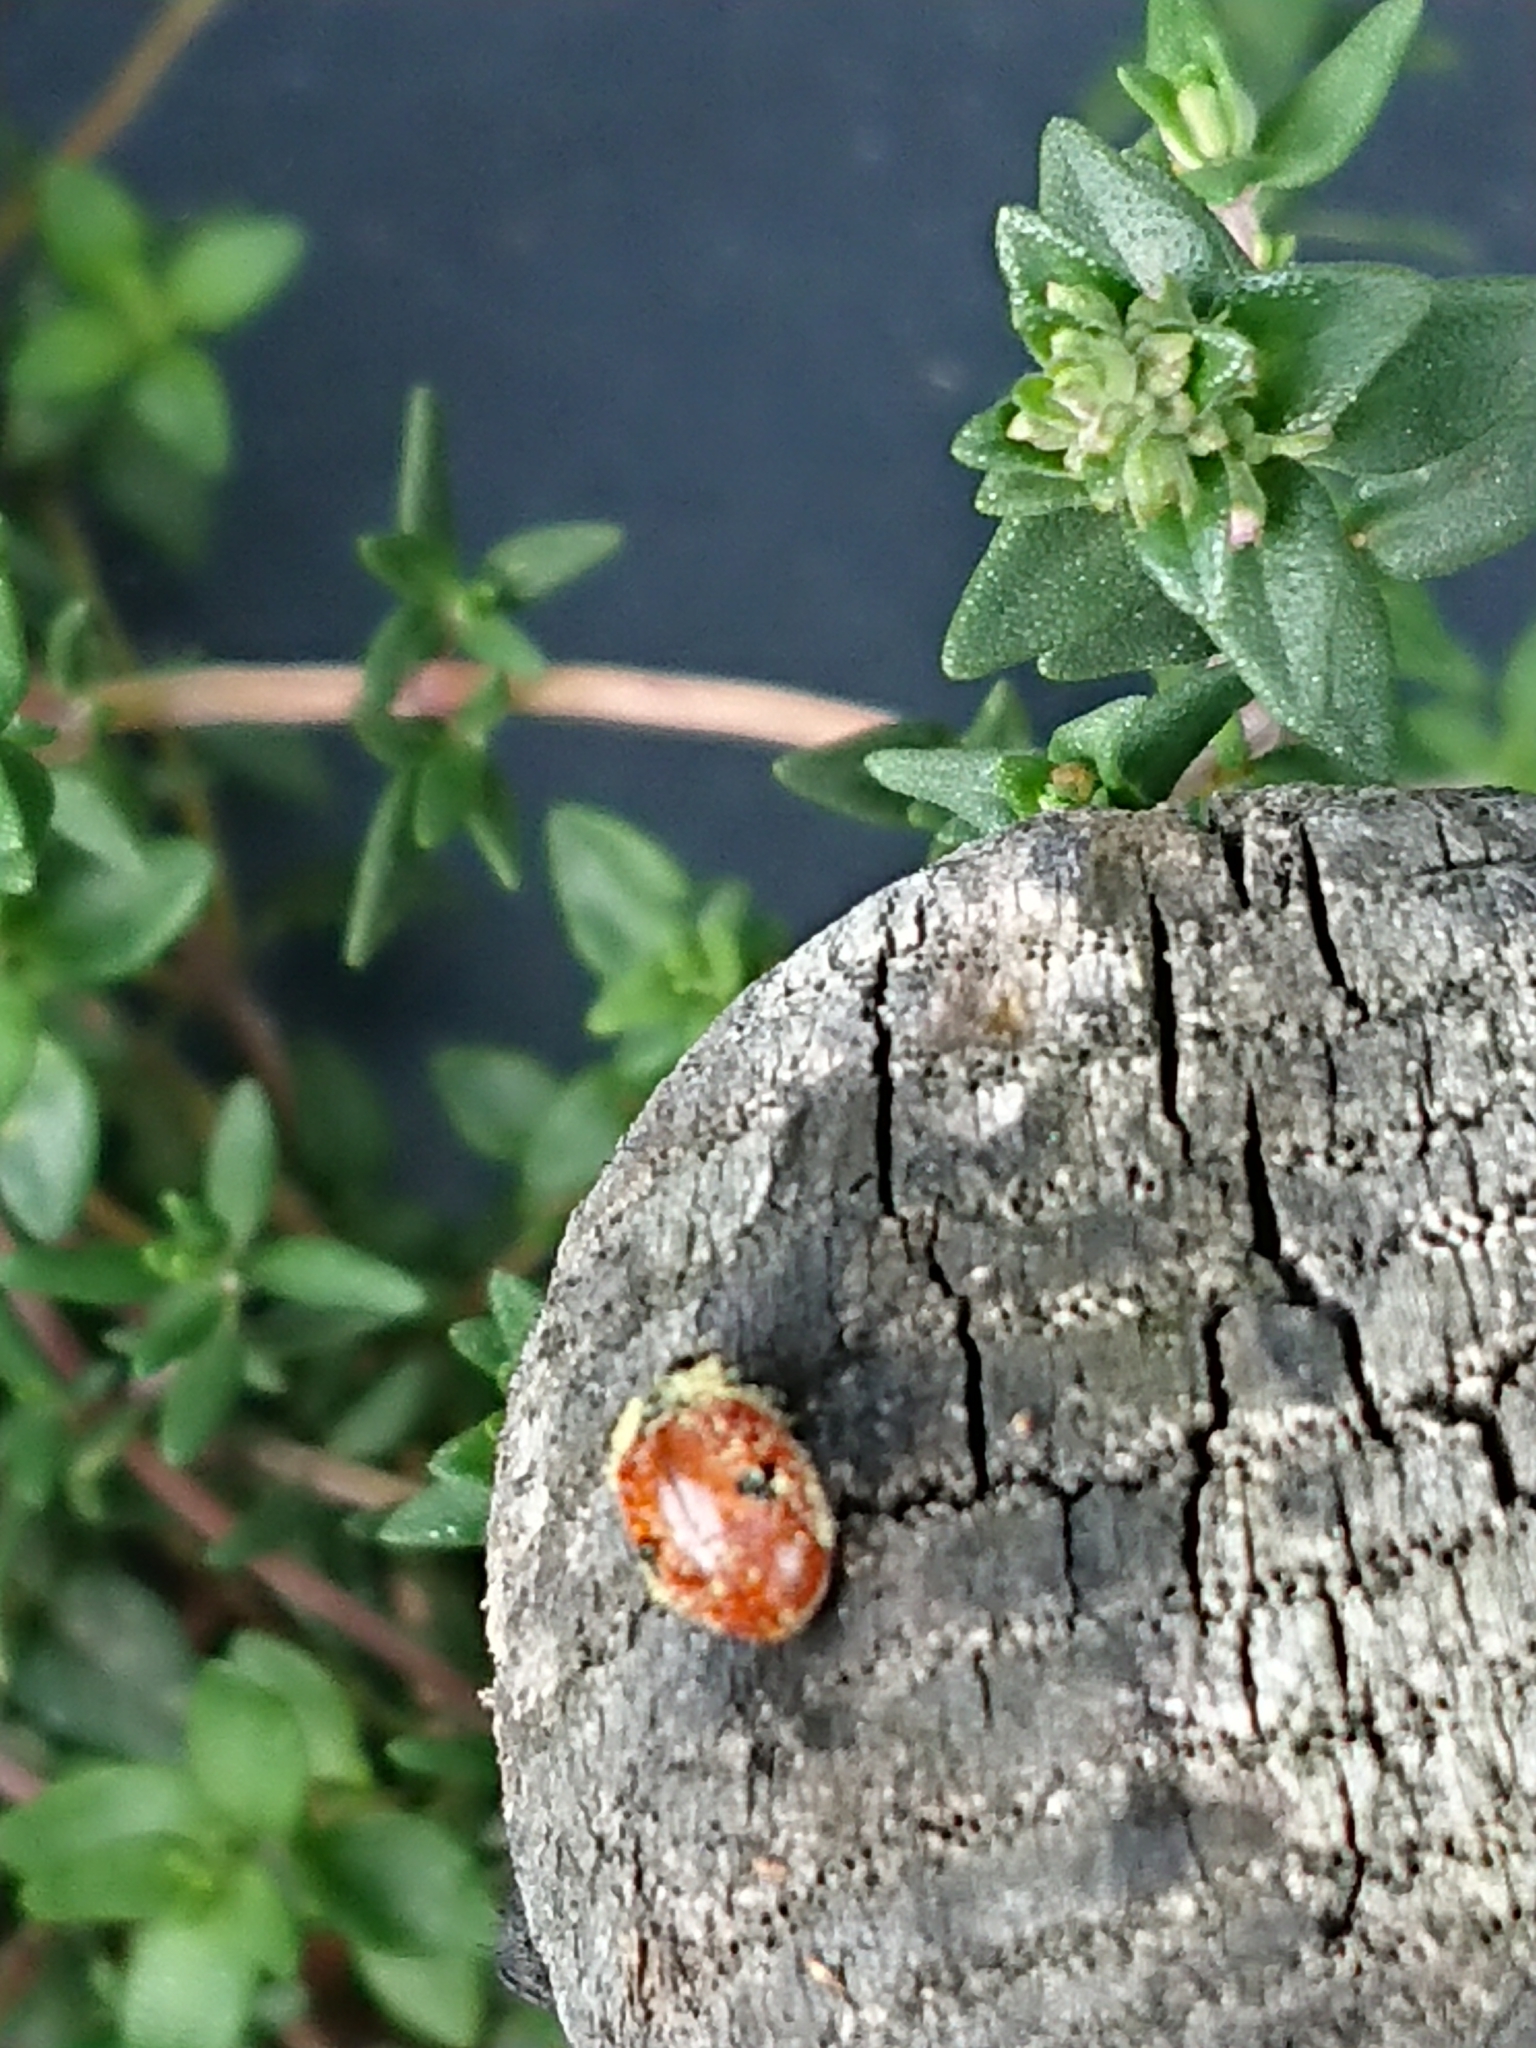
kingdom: Animalia
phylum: Arthropoda
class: Insecta
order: Coleoptera
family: Coccinellidae
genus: Adalia
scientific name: Adalia bipunctata
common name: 2-spot ladybird
